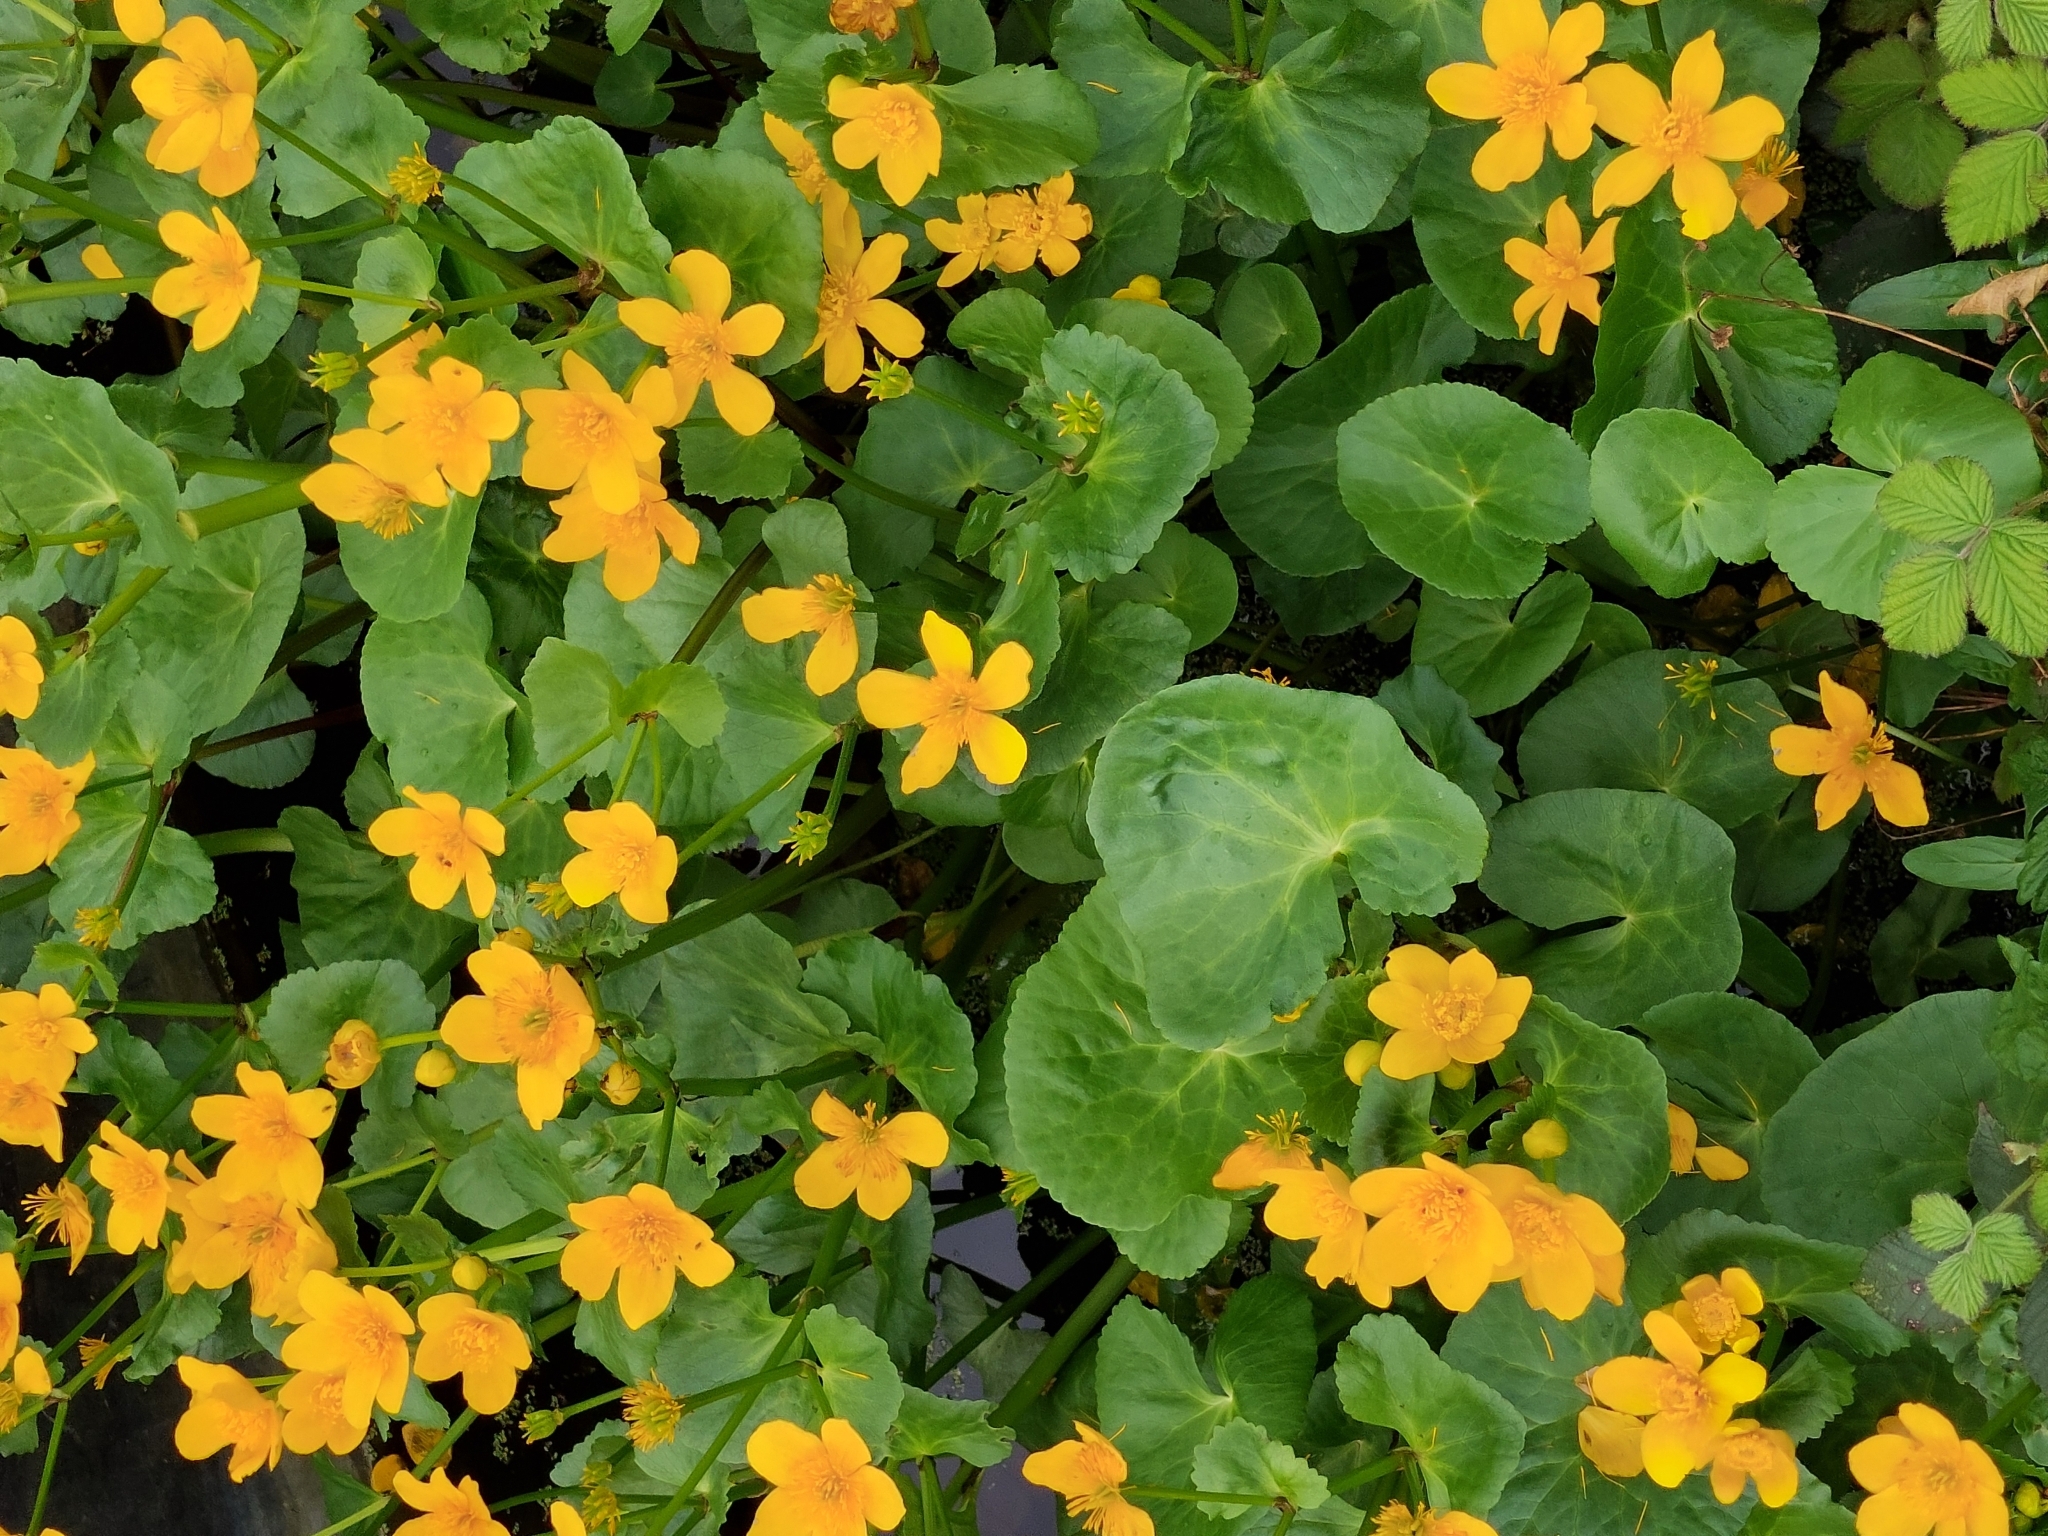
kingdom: Plantae
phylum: Tracheophyta
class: Magnoliopsida
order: Ranunculales
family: Ranunculaceae
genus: Caltha
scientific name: Caltha palustris
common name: Marsh marigold
